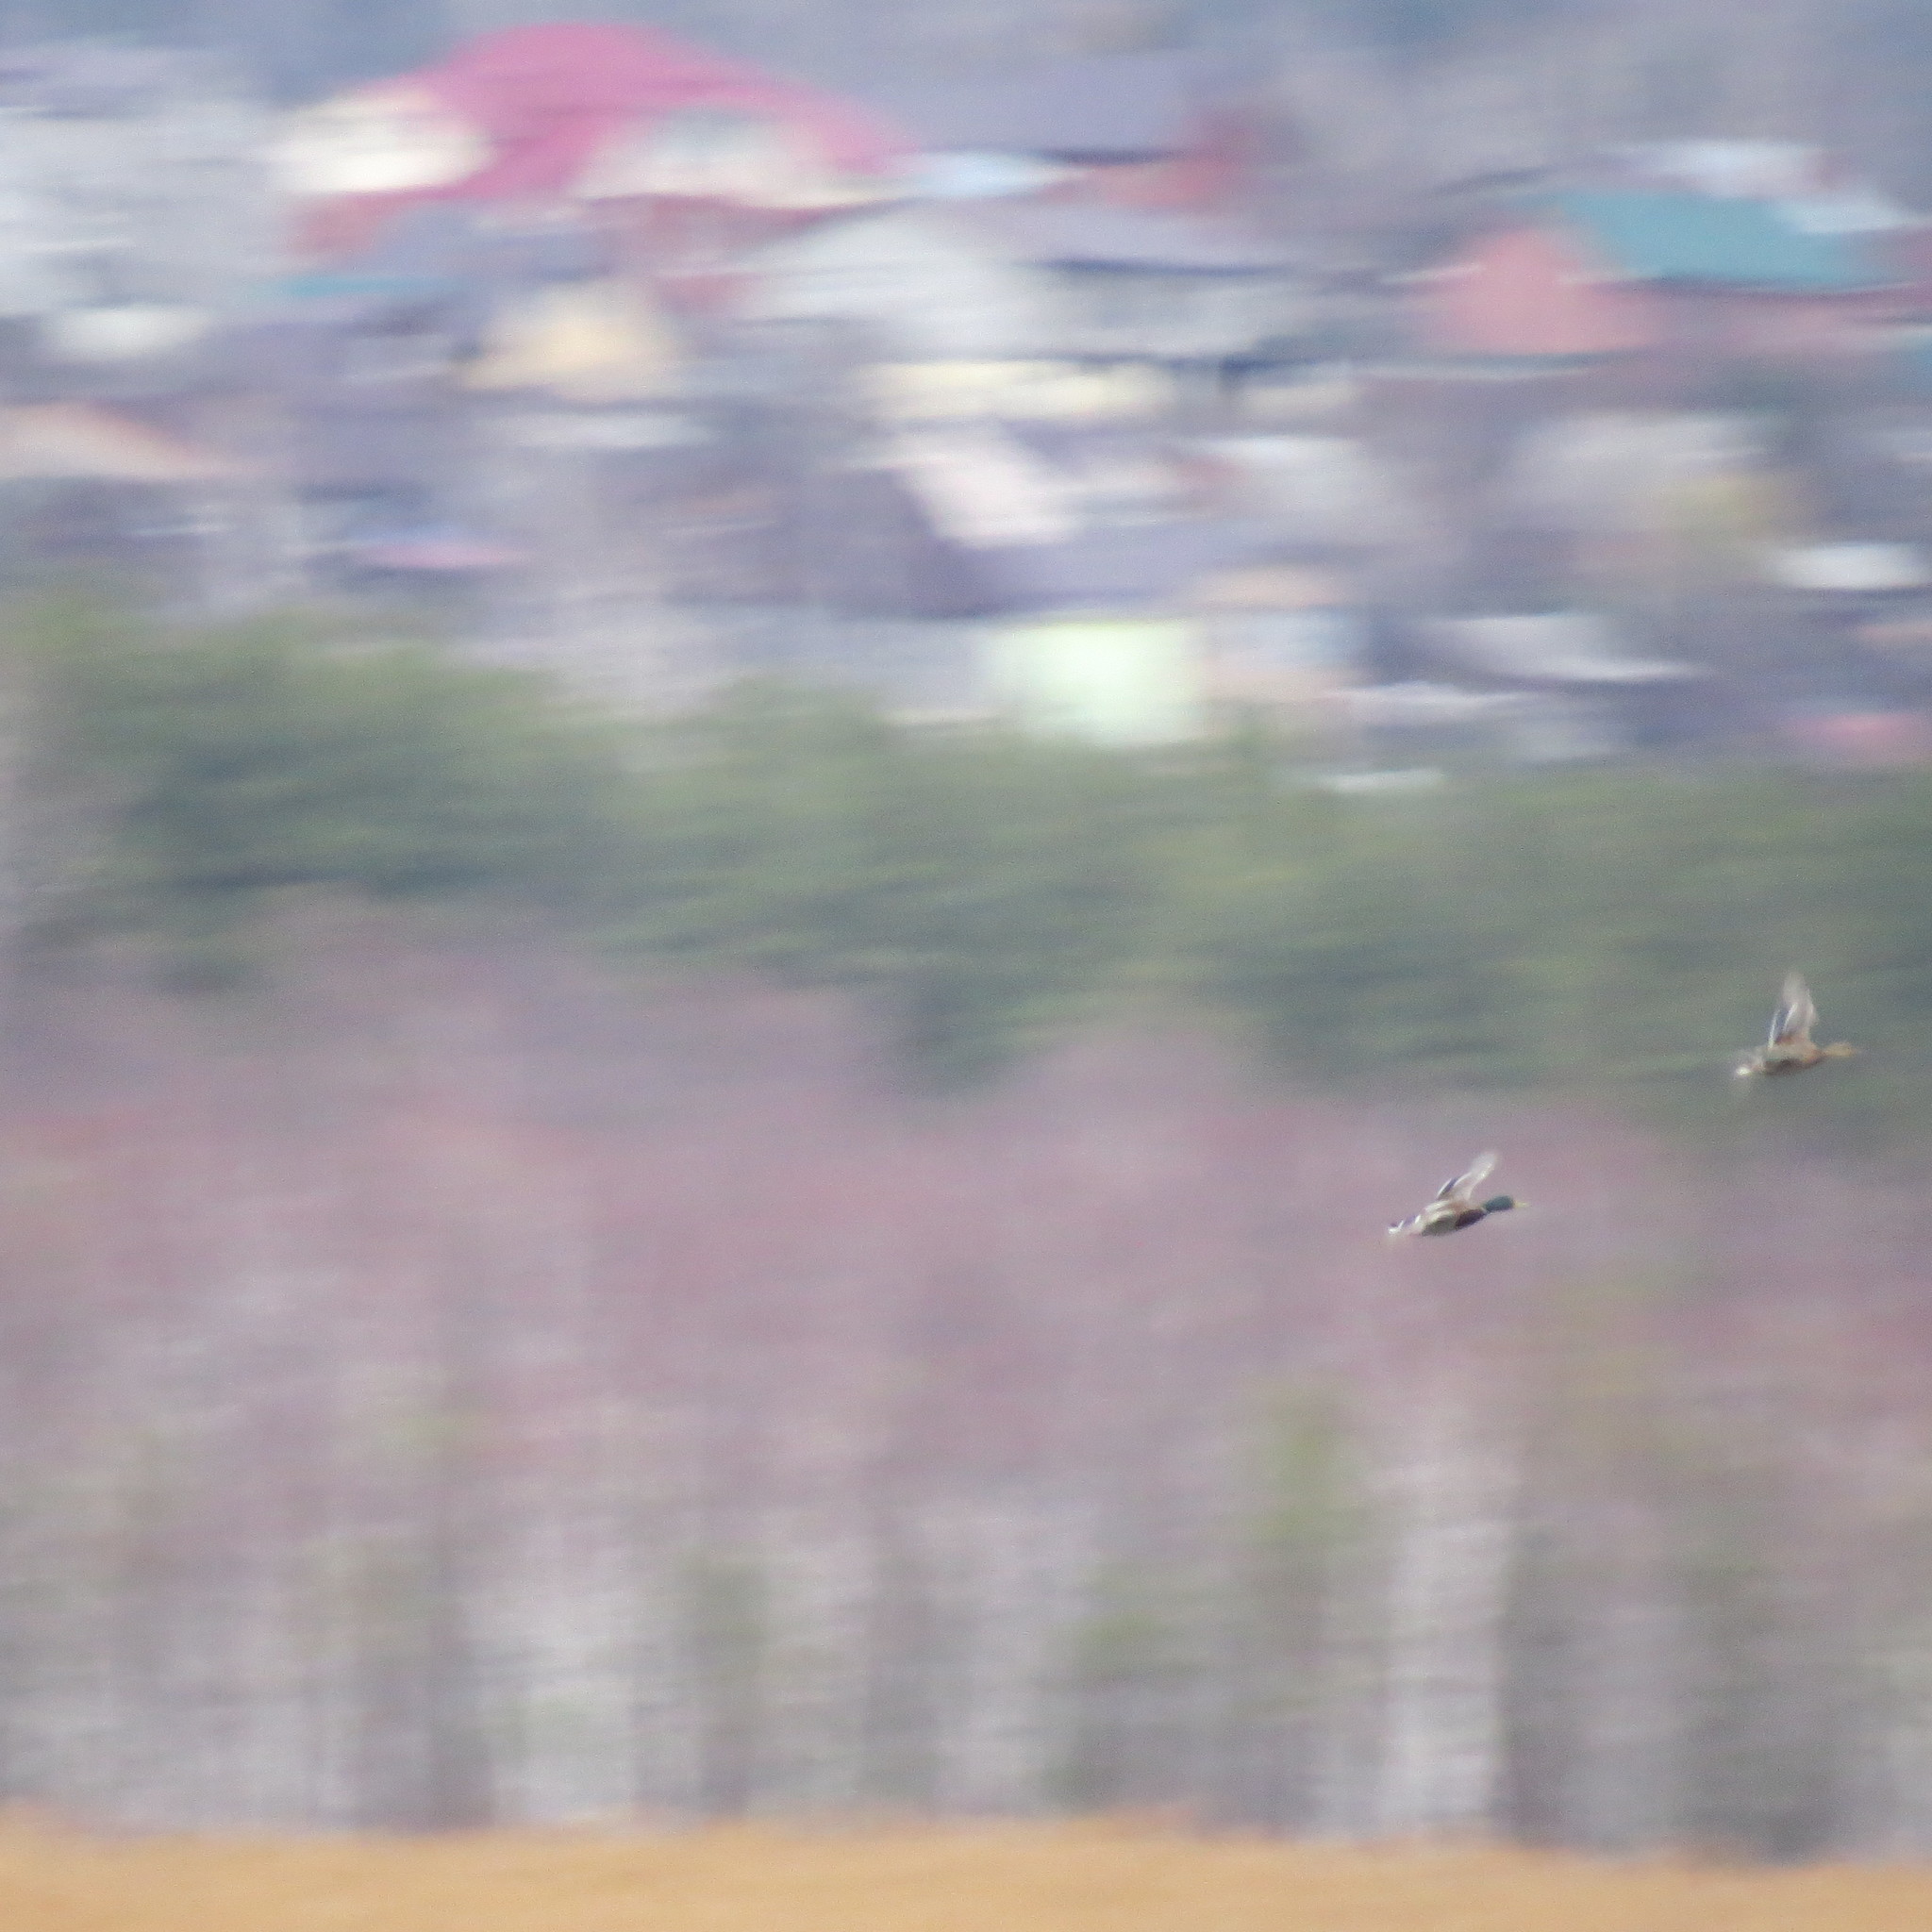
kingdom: Animalia
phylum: Chordata
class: Aves
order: Anseriformes
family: Anatidae
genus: Anas
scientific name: Anas platyrhynchos
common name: Mallard
